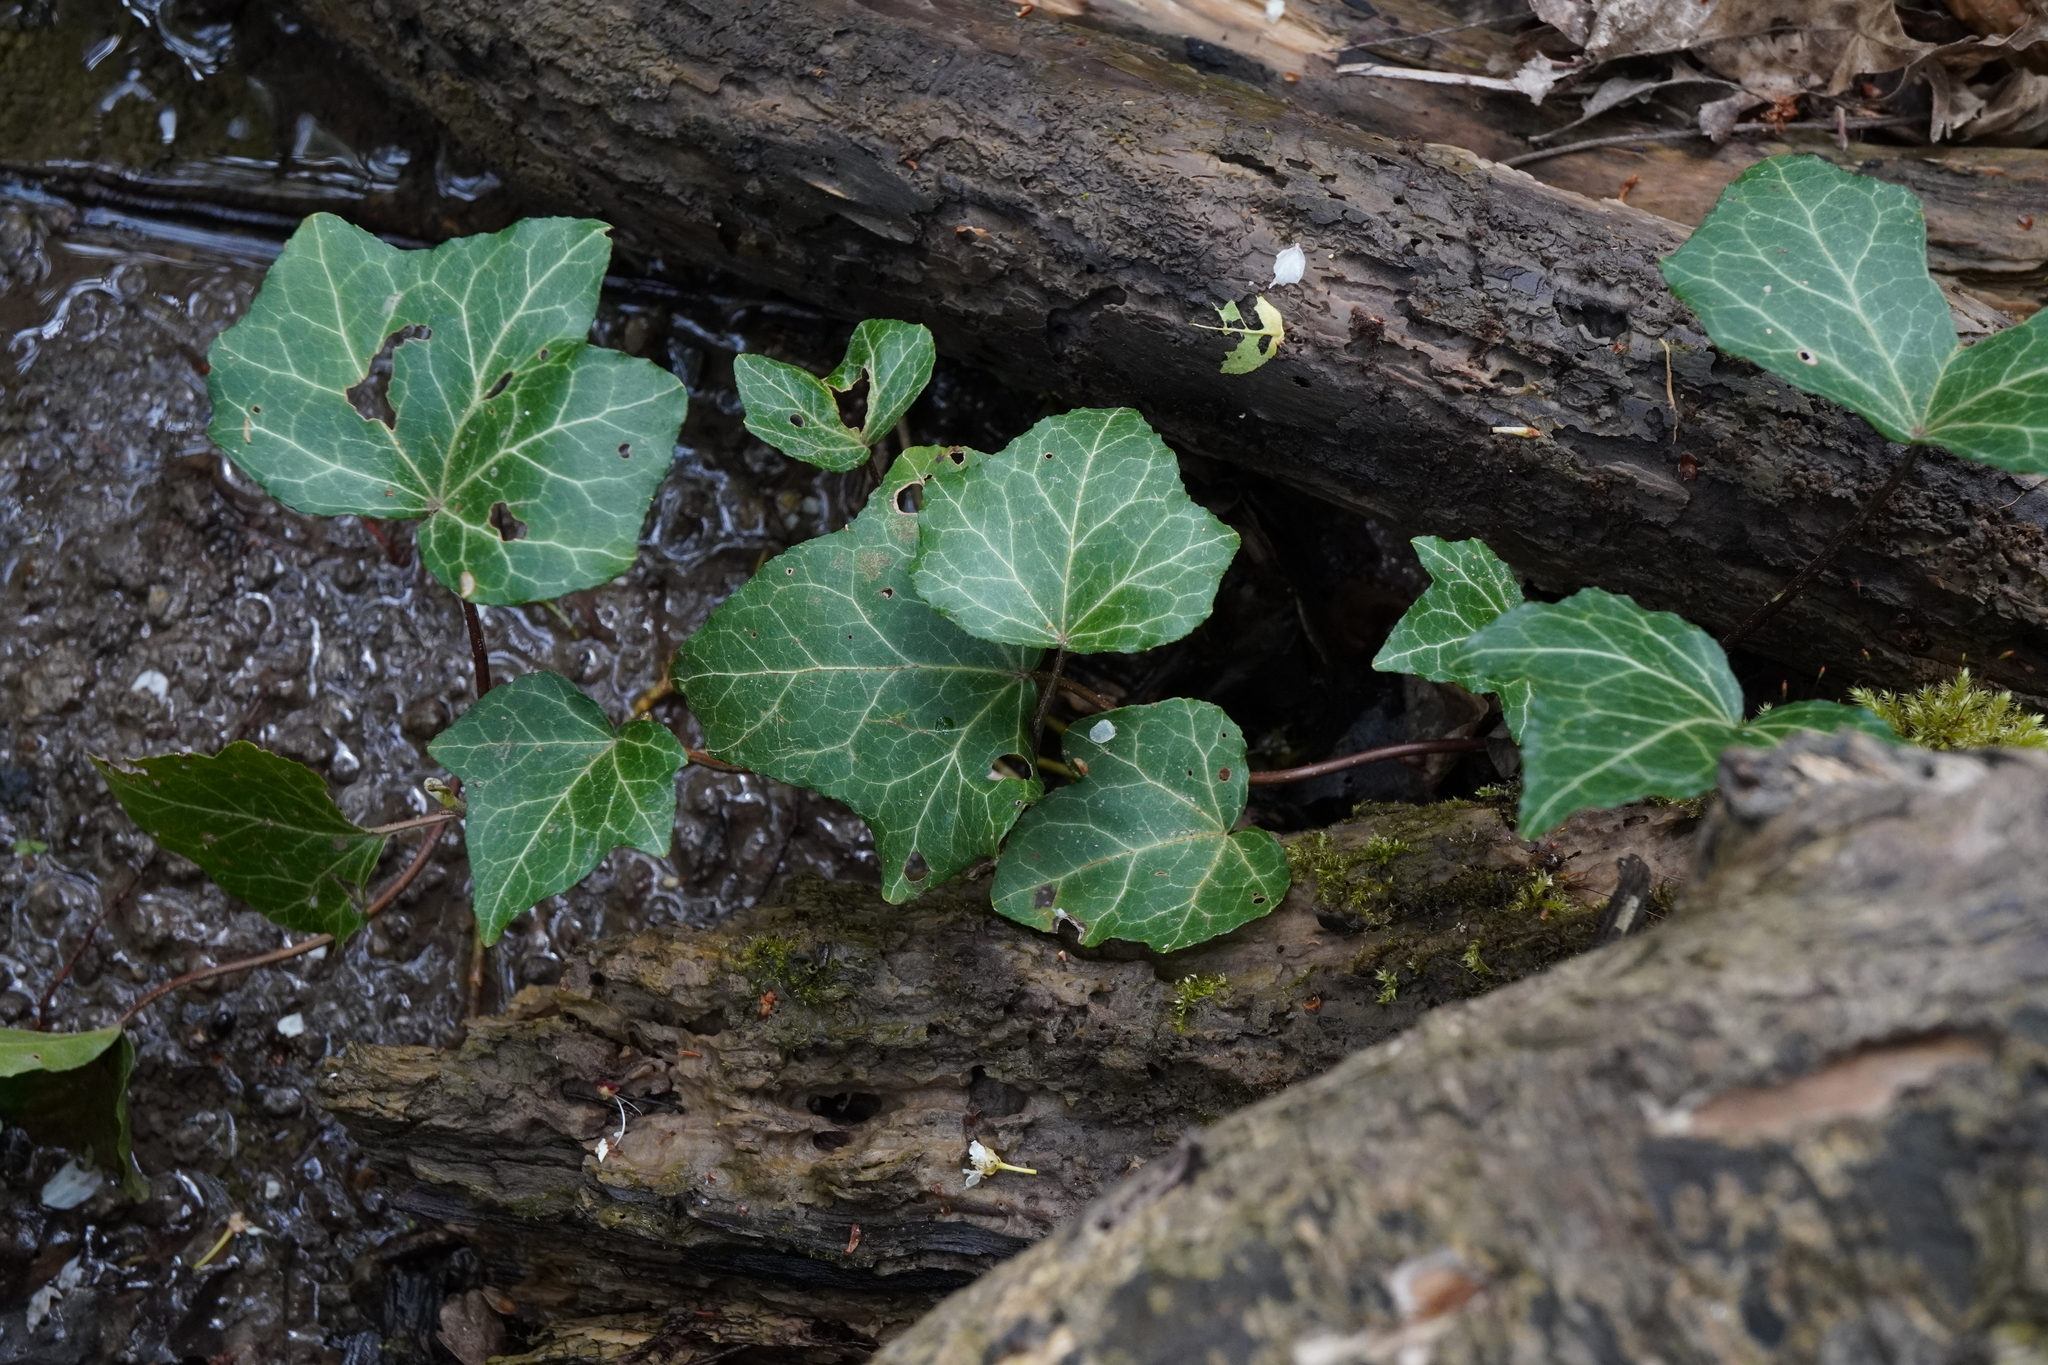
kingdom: Plantae
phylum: Tracheophyta
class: Magnoliopsida
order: Apiales
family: Araliaceae
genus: Hedera
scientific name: Hedera helix
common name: Ivy
